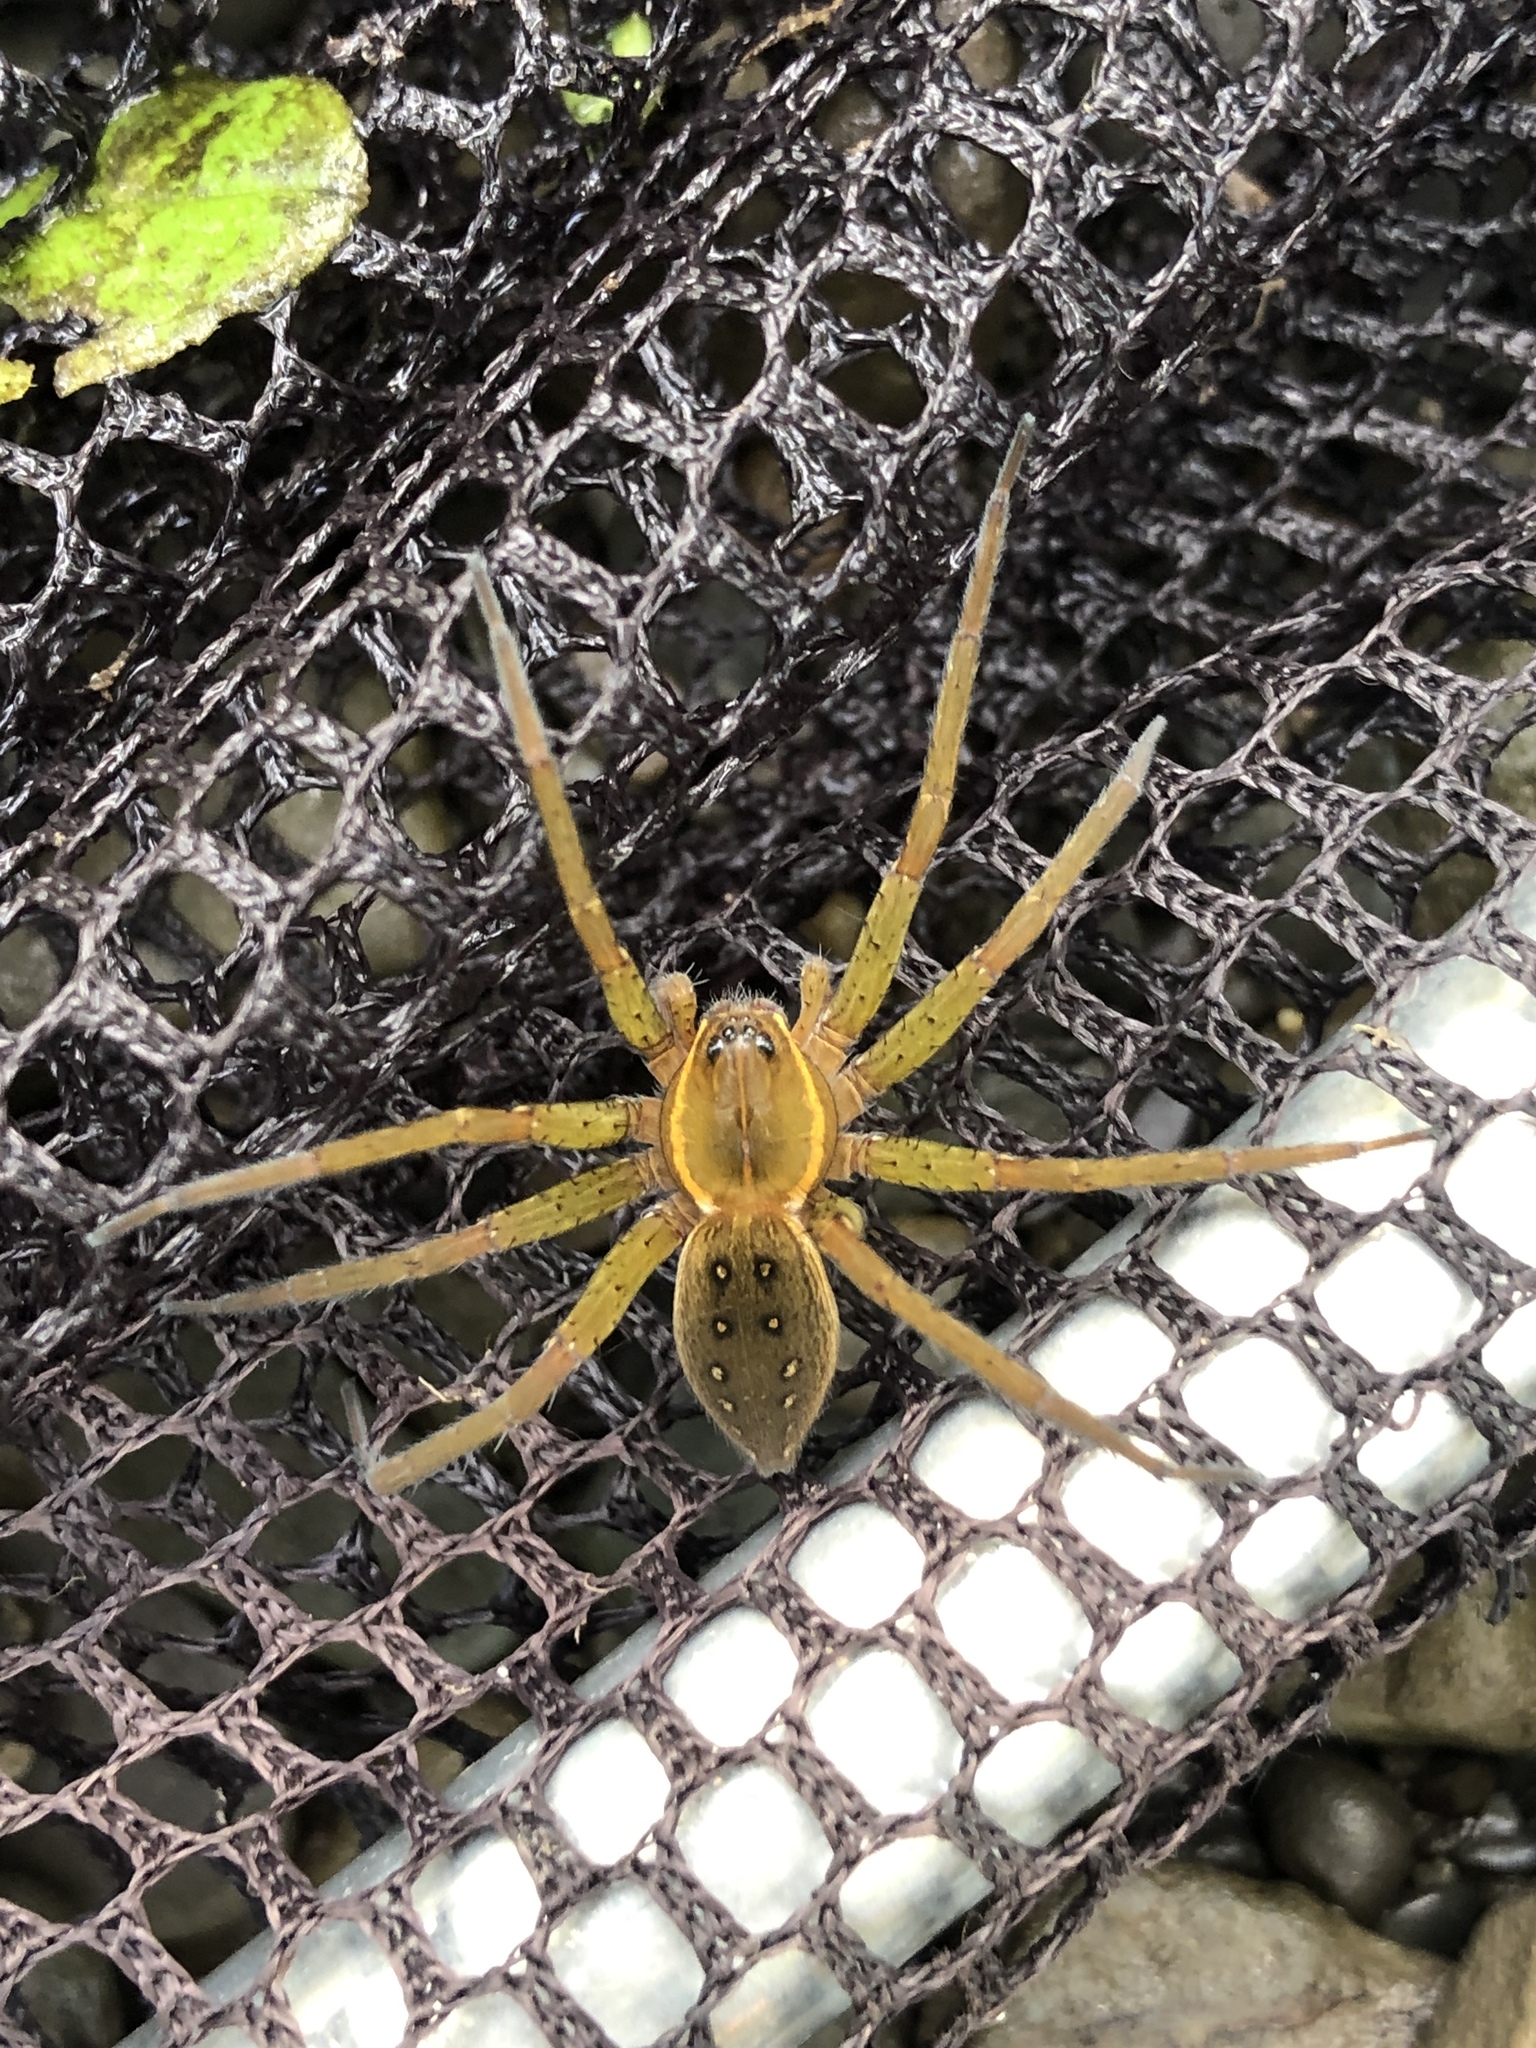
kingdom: Animalia
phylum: Arthropoda
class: Arachnida
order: Araneae
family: Pisauridae
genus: Dolomedes
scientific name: Dolomedes triton
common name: Six-spotted fishing spider
